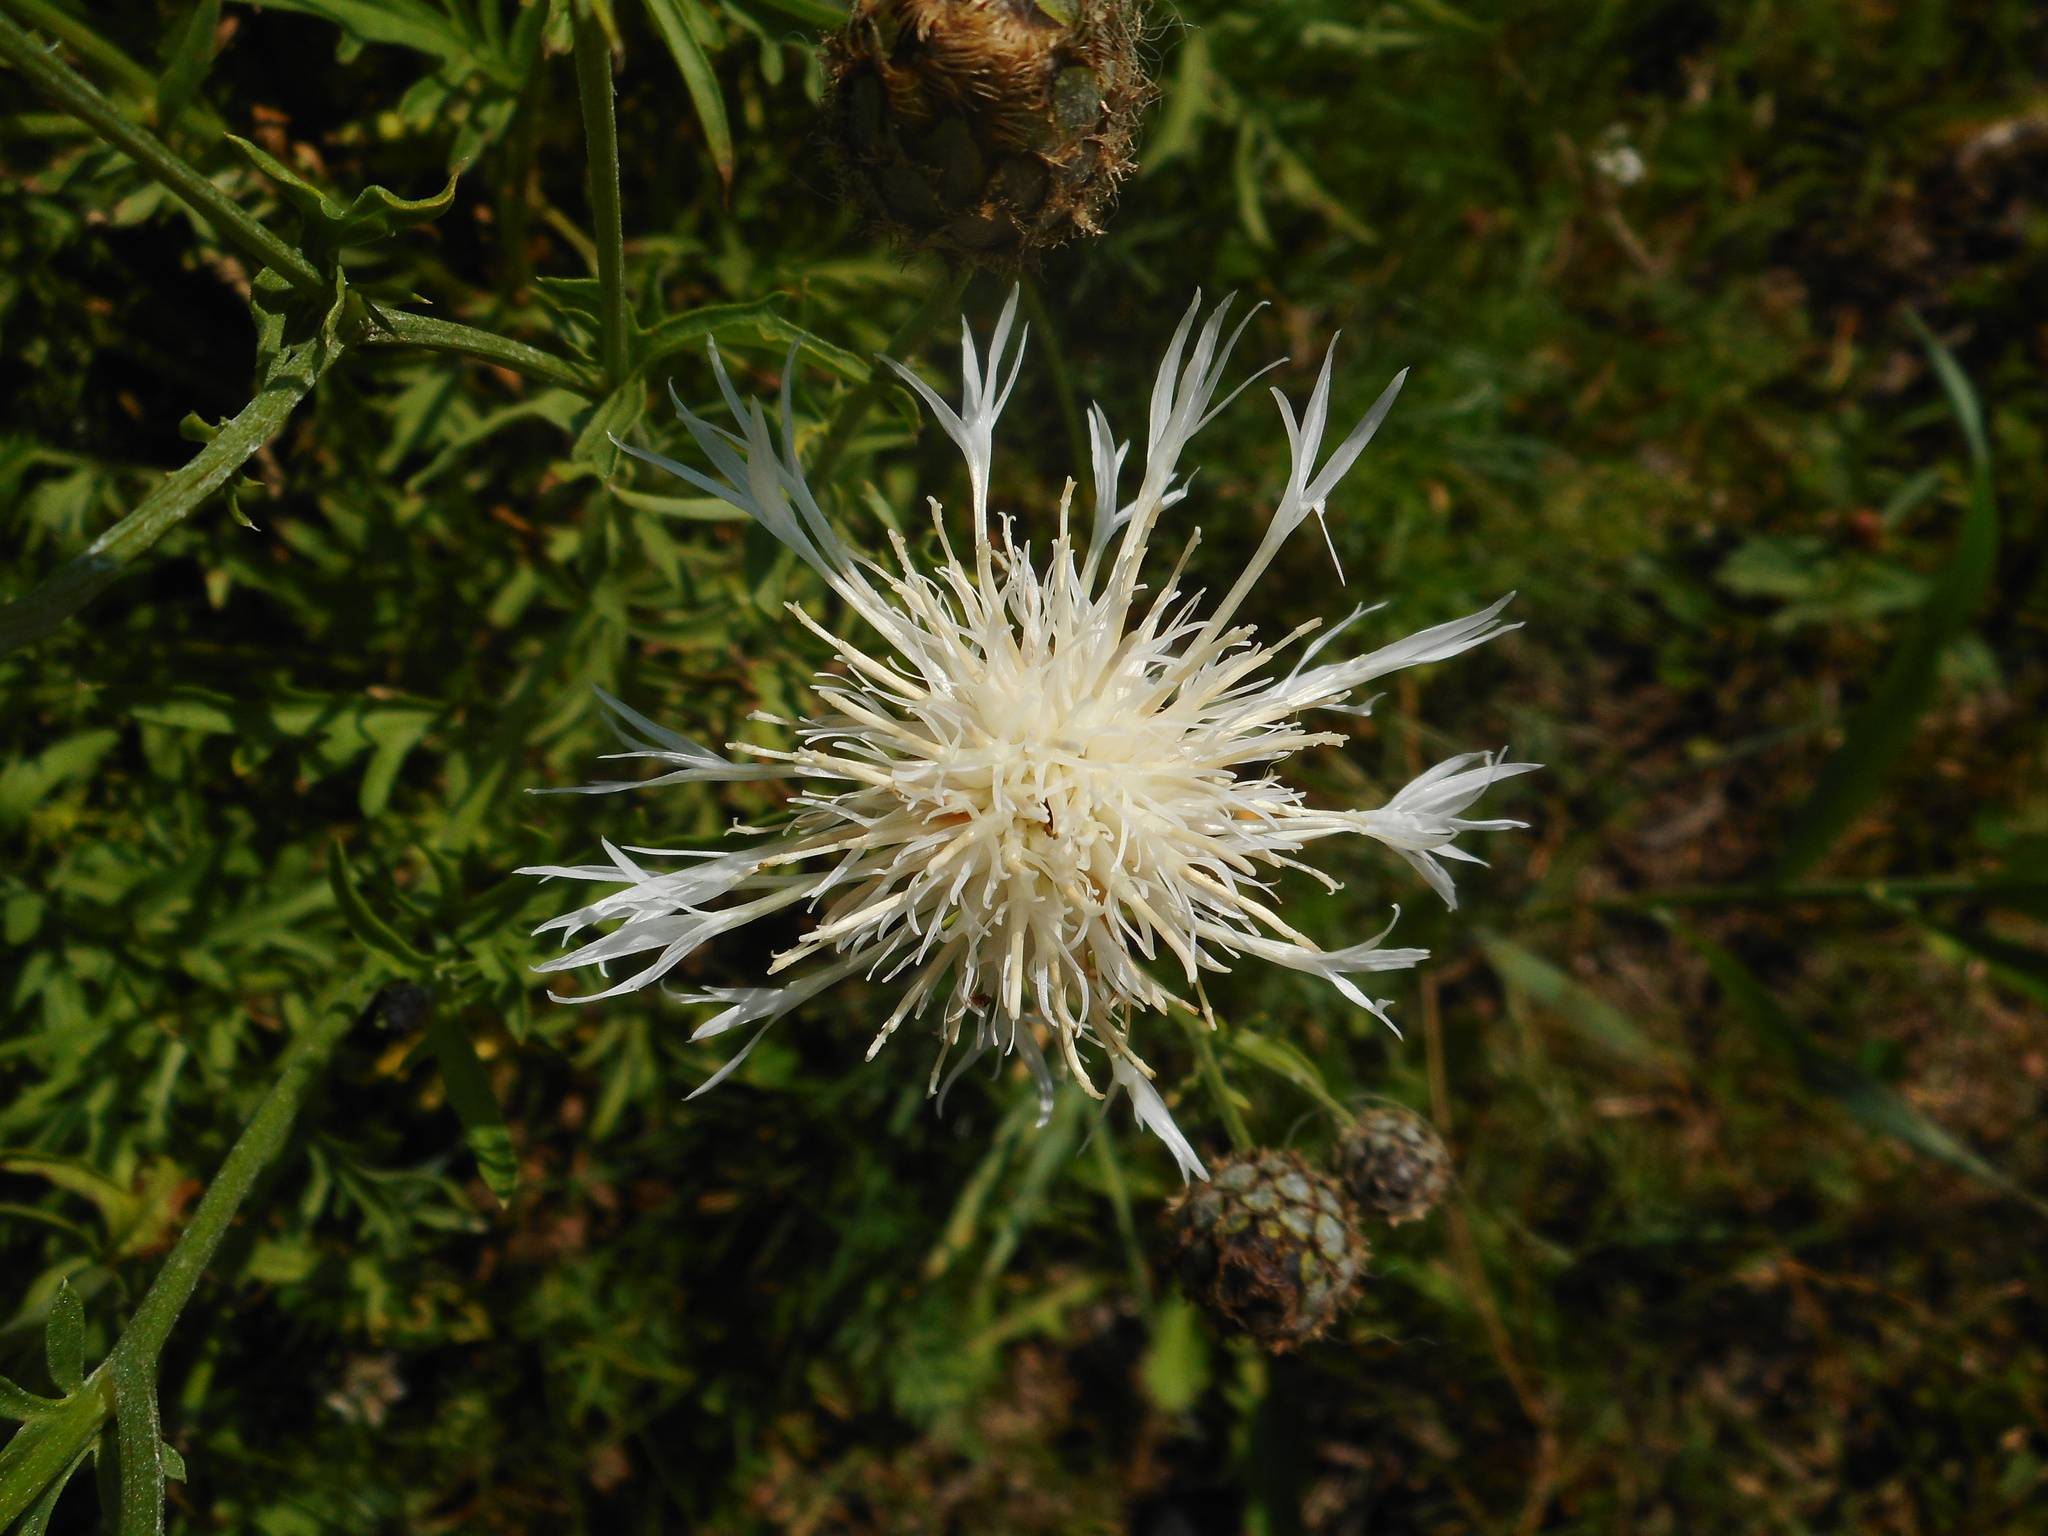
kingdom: Plantae
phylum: Tracheophyta
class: Magnoliopsida
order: Asterales
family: Asteraceae
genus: Centaurea
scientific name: Centaurea scabiosa
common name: Greater knapweed
